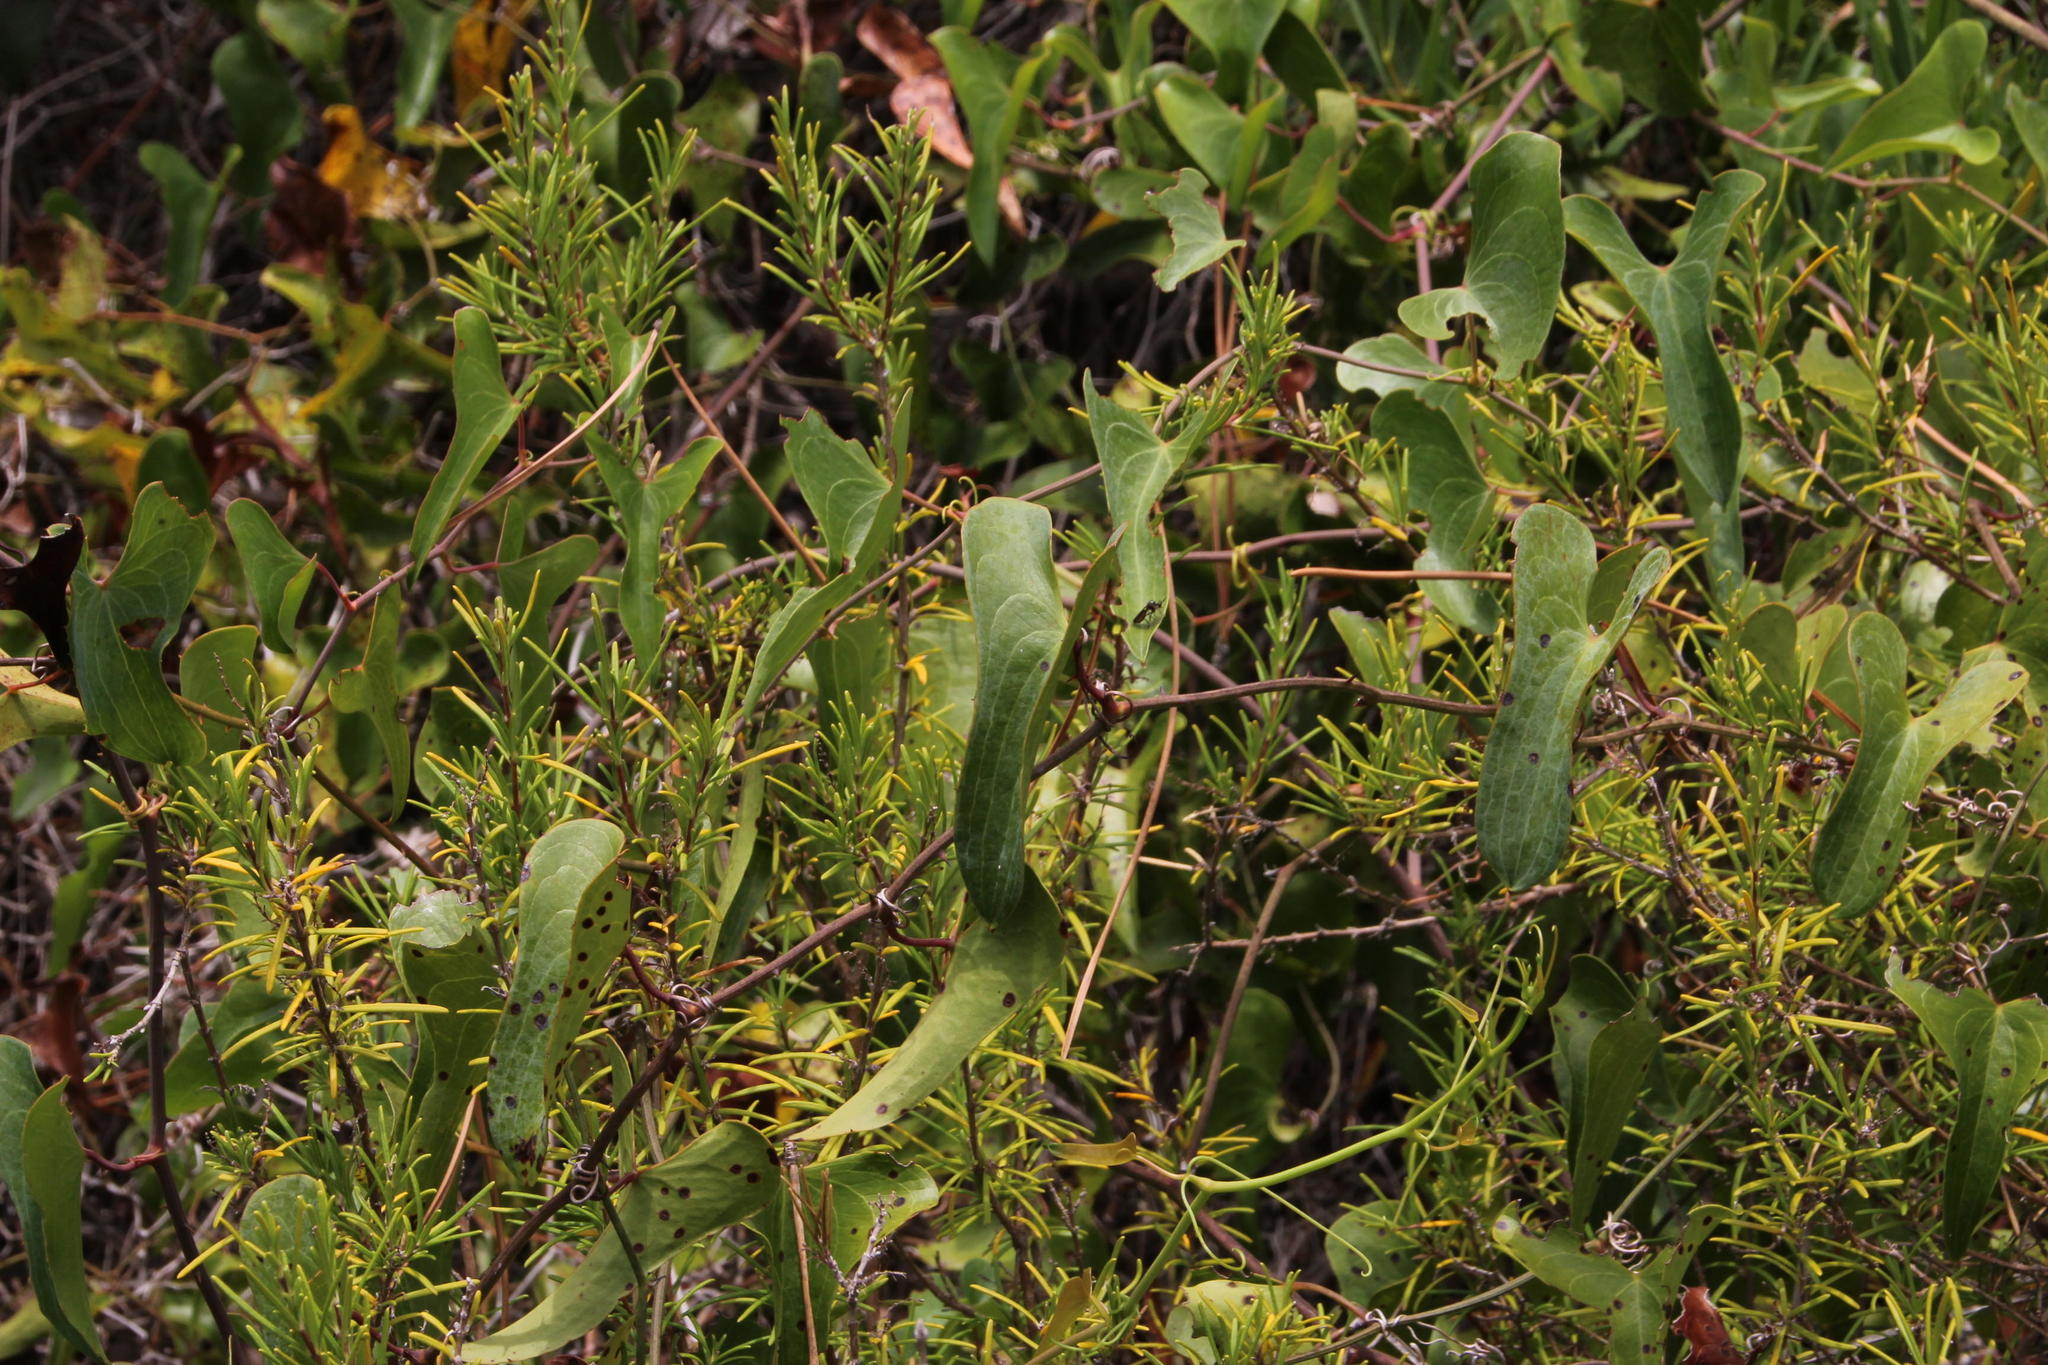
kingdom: Plantae
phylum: Tracheophyta
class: Liliopsida
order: Liliales
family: Smilacaceae
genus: Smilax
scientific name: Smilax aspera
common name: Common smilax
